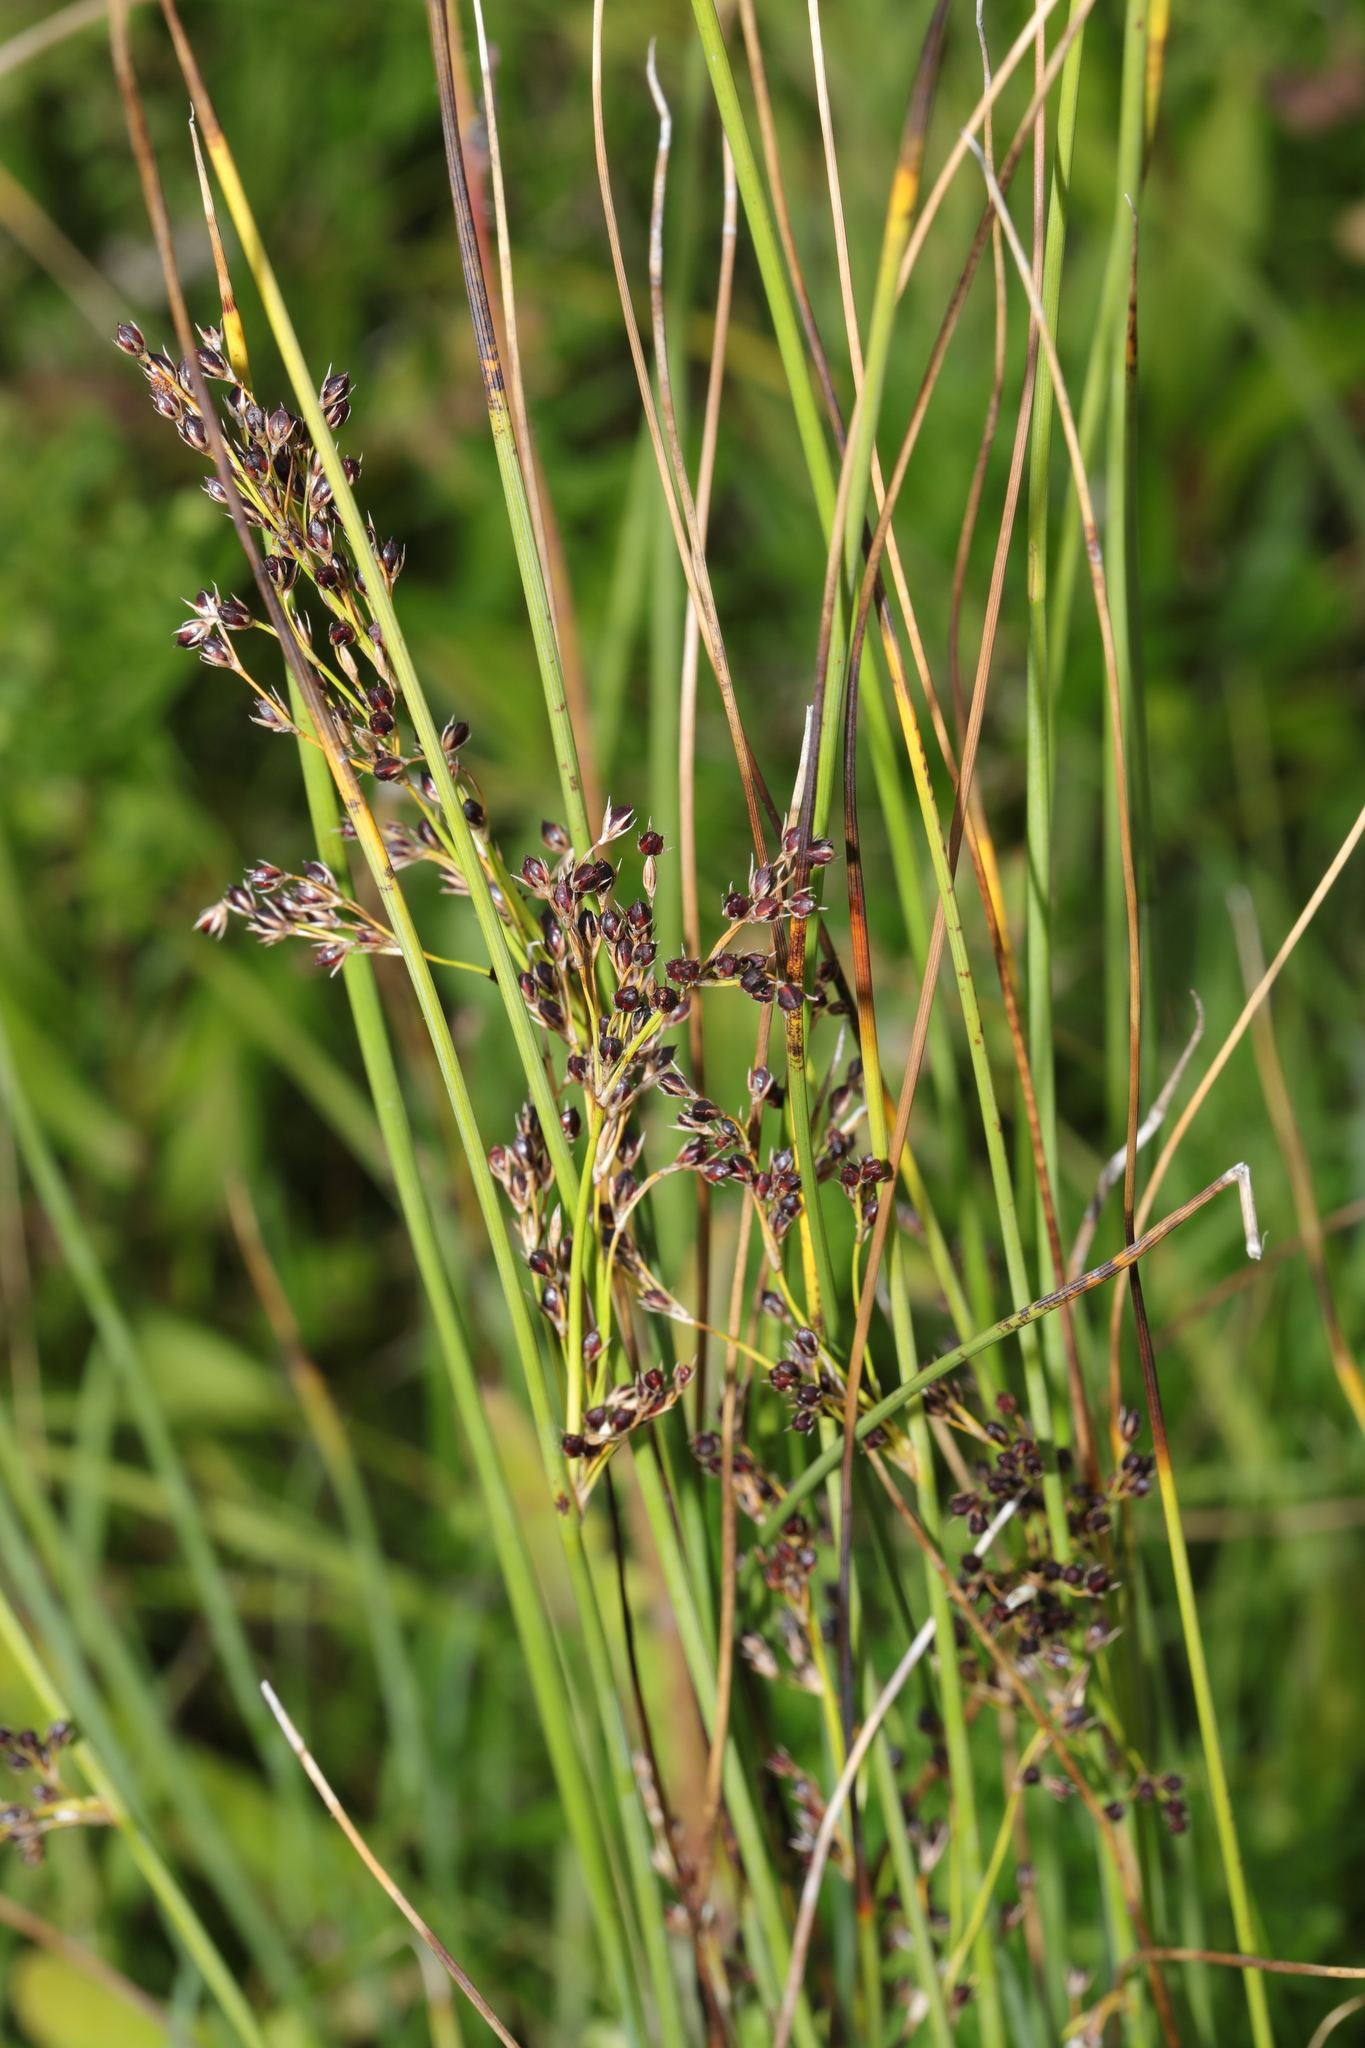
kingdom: Plantae
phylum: Tracheophyta
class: Liliopsida
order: Poales
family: Juncaceae
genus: Juncus
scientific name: Juncus inflexus
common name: Hard rush
